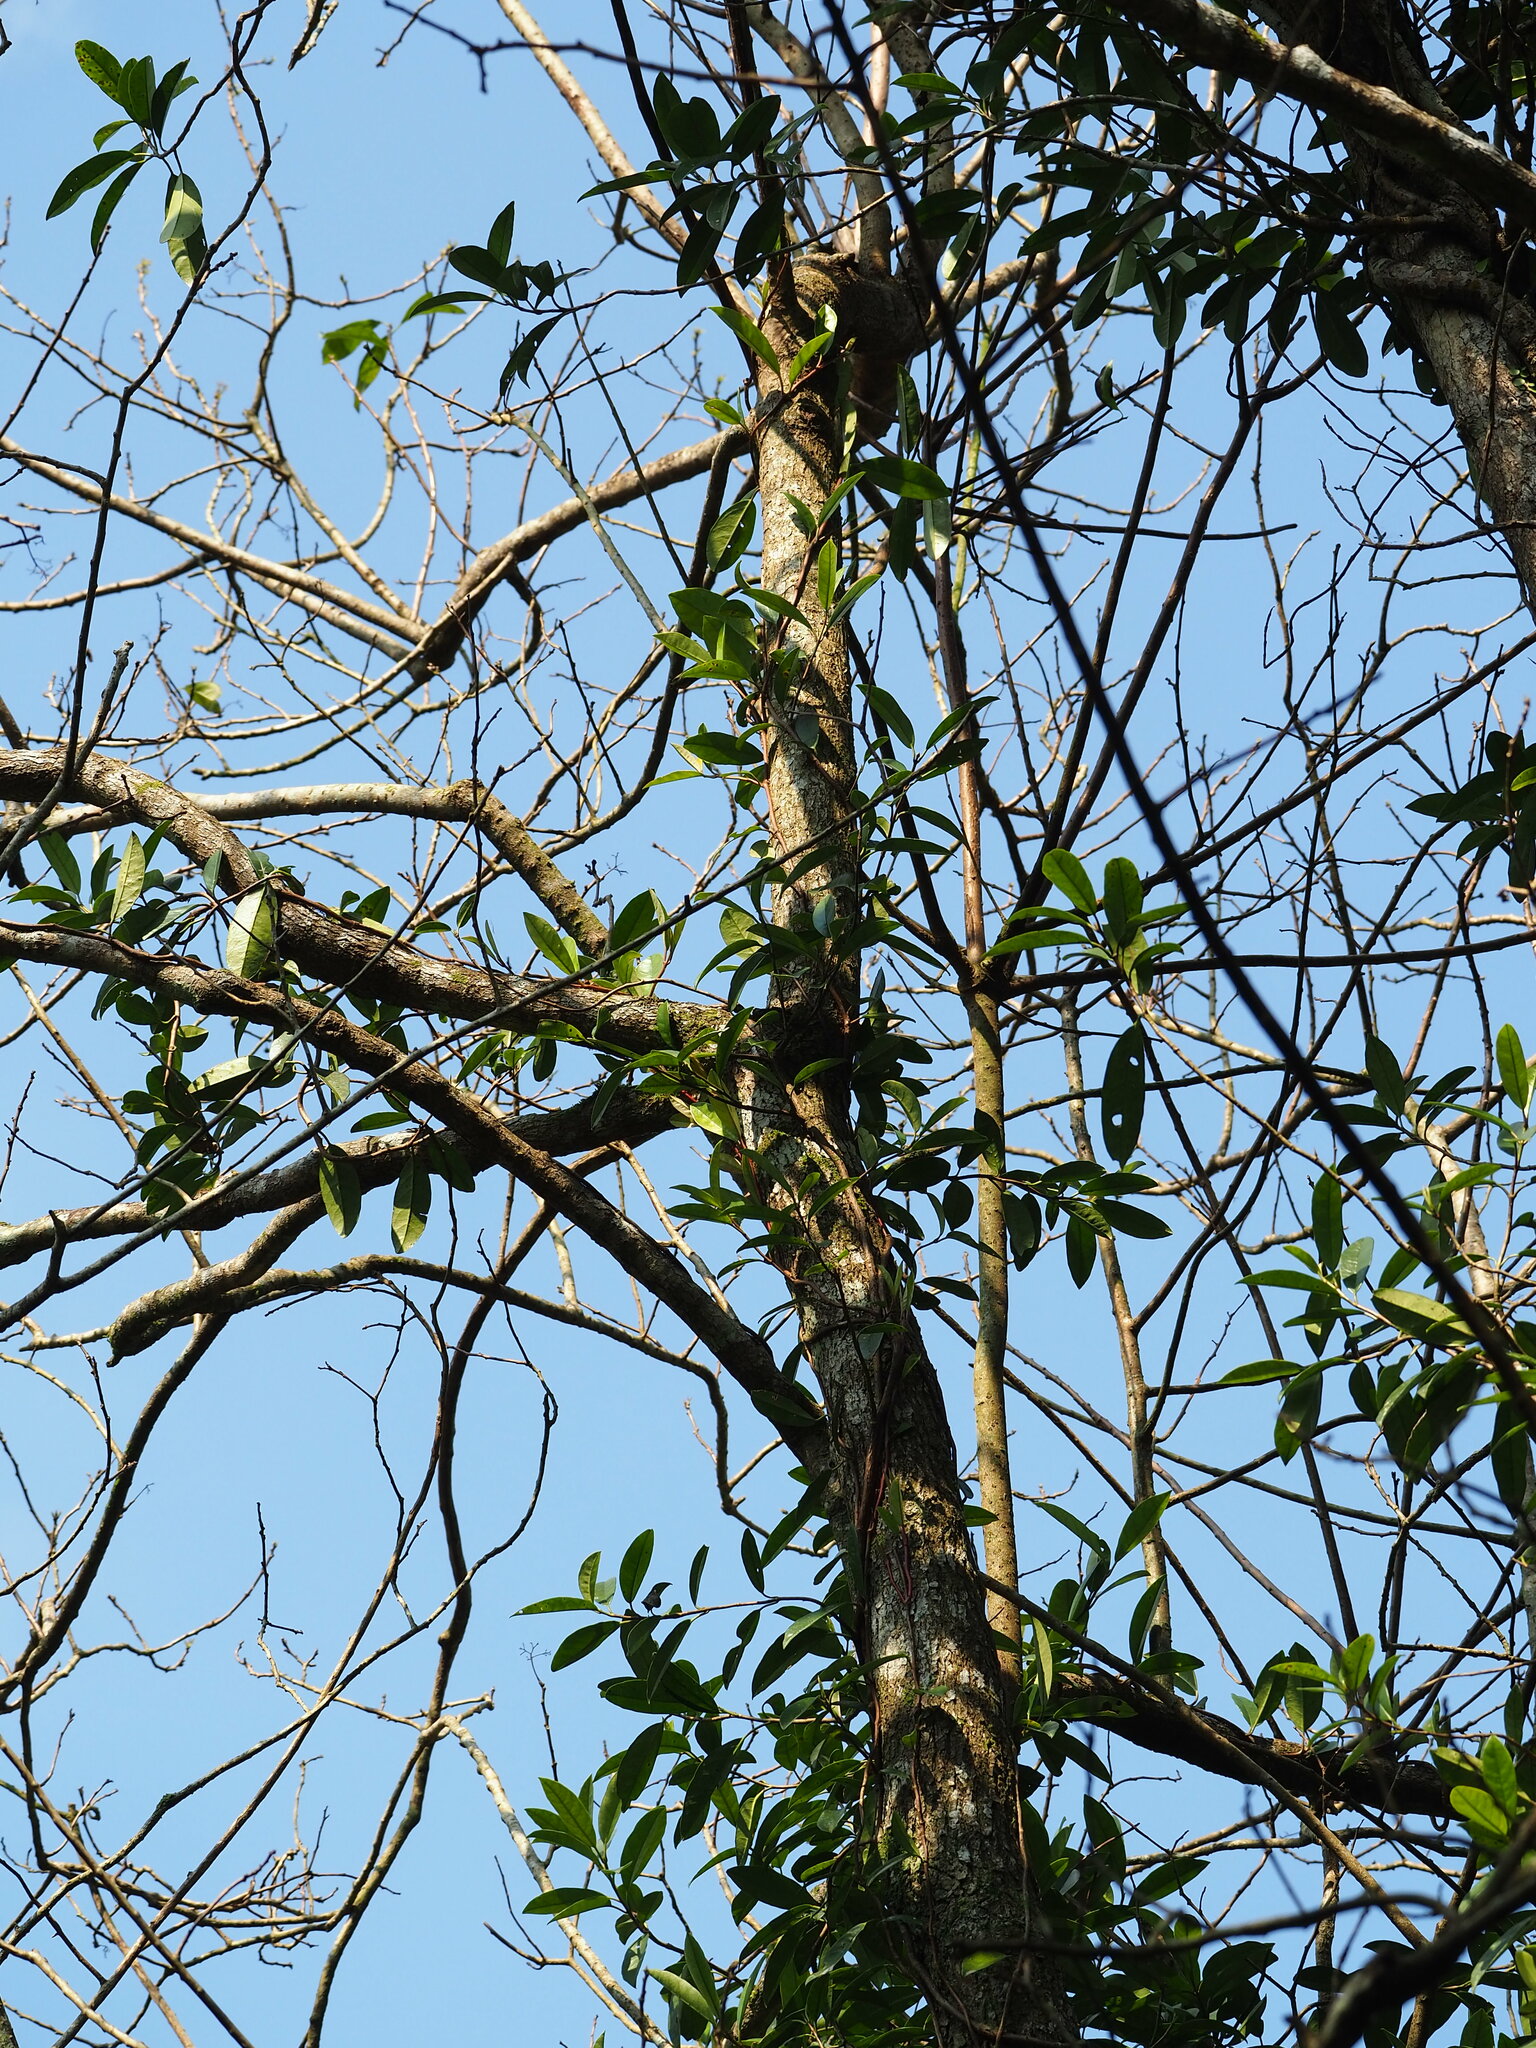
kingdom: Plantae
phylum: Tracheophyta
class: Magnoliopsida
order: Cornales
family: Hydrangeaceae
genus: Hydrangea
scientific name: Hydrangea viburnoides
